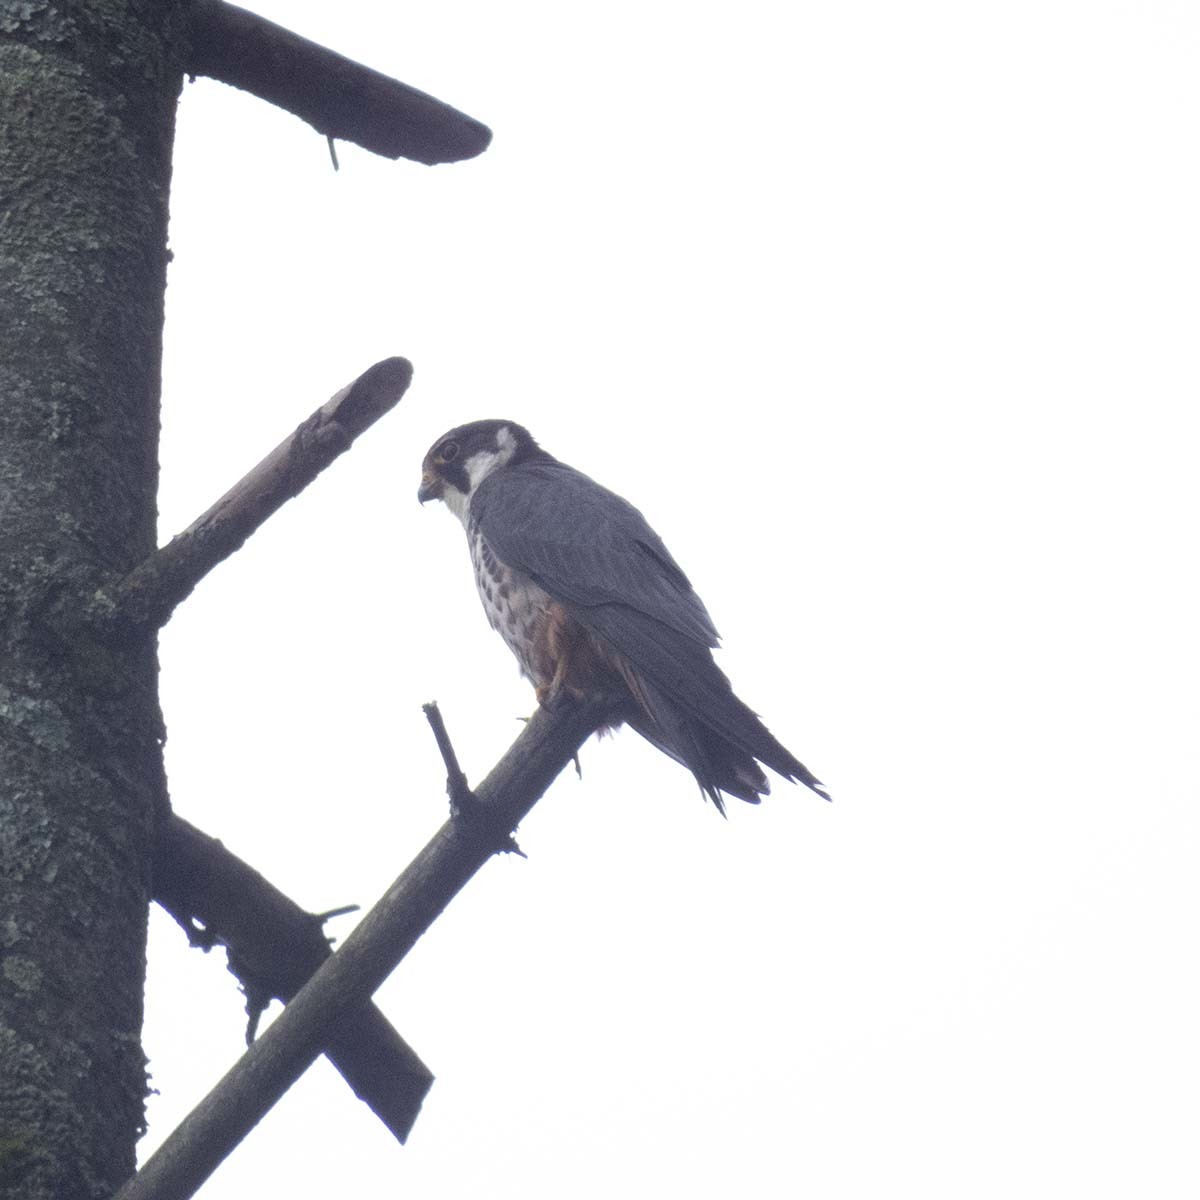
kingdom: Animalia
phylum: Chordata
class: Aves
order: Falconiformes
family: Falconidae
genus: Falco
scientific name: Falco subbuteo
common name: Eurasian hobby
